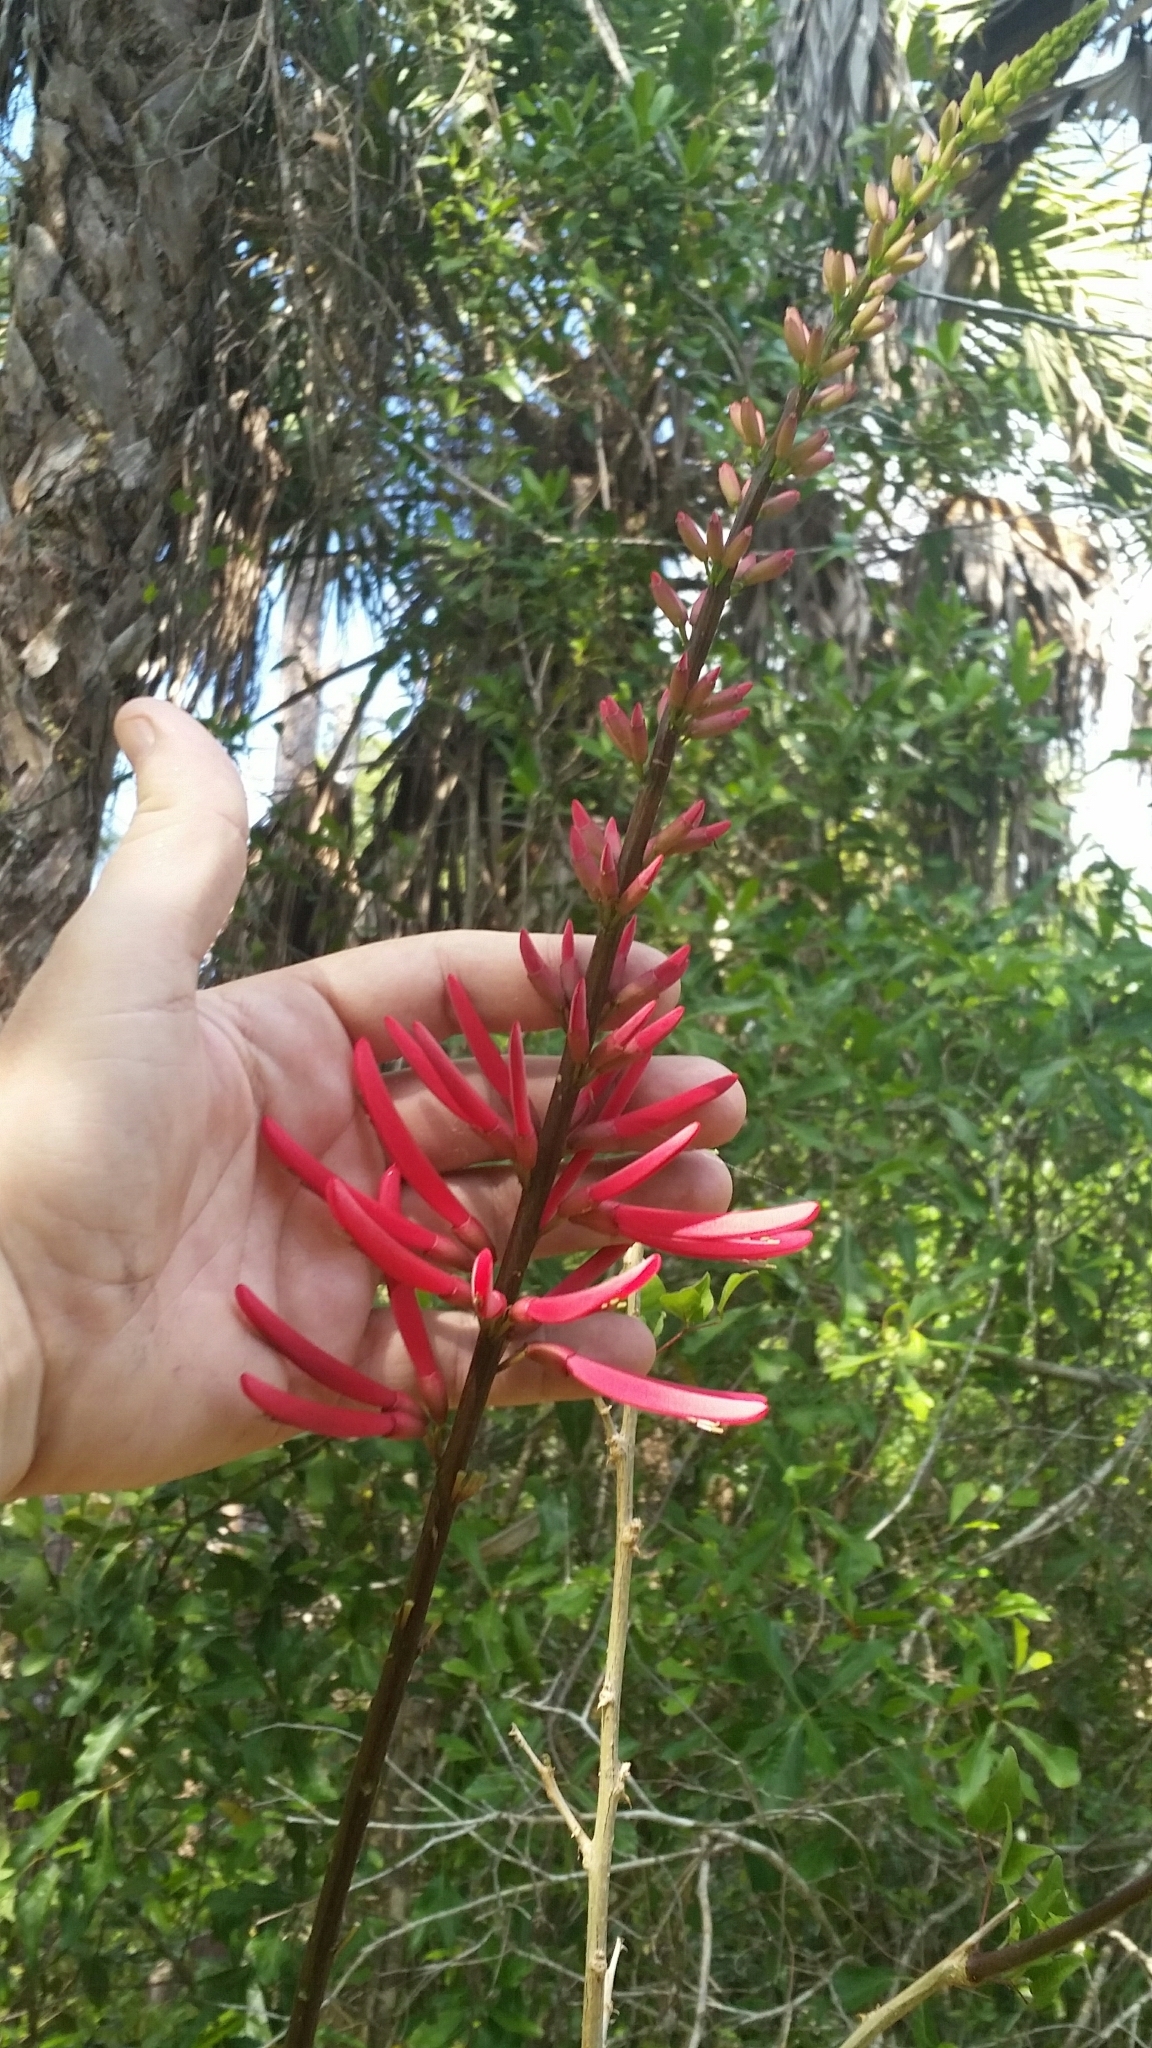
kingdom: Plantae
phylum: Tracheophyta
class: Magnoliopsida
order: Fabales
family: Fabaceae
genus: Erythrina
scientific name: Erythrina herbacea
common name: Coral-bean
